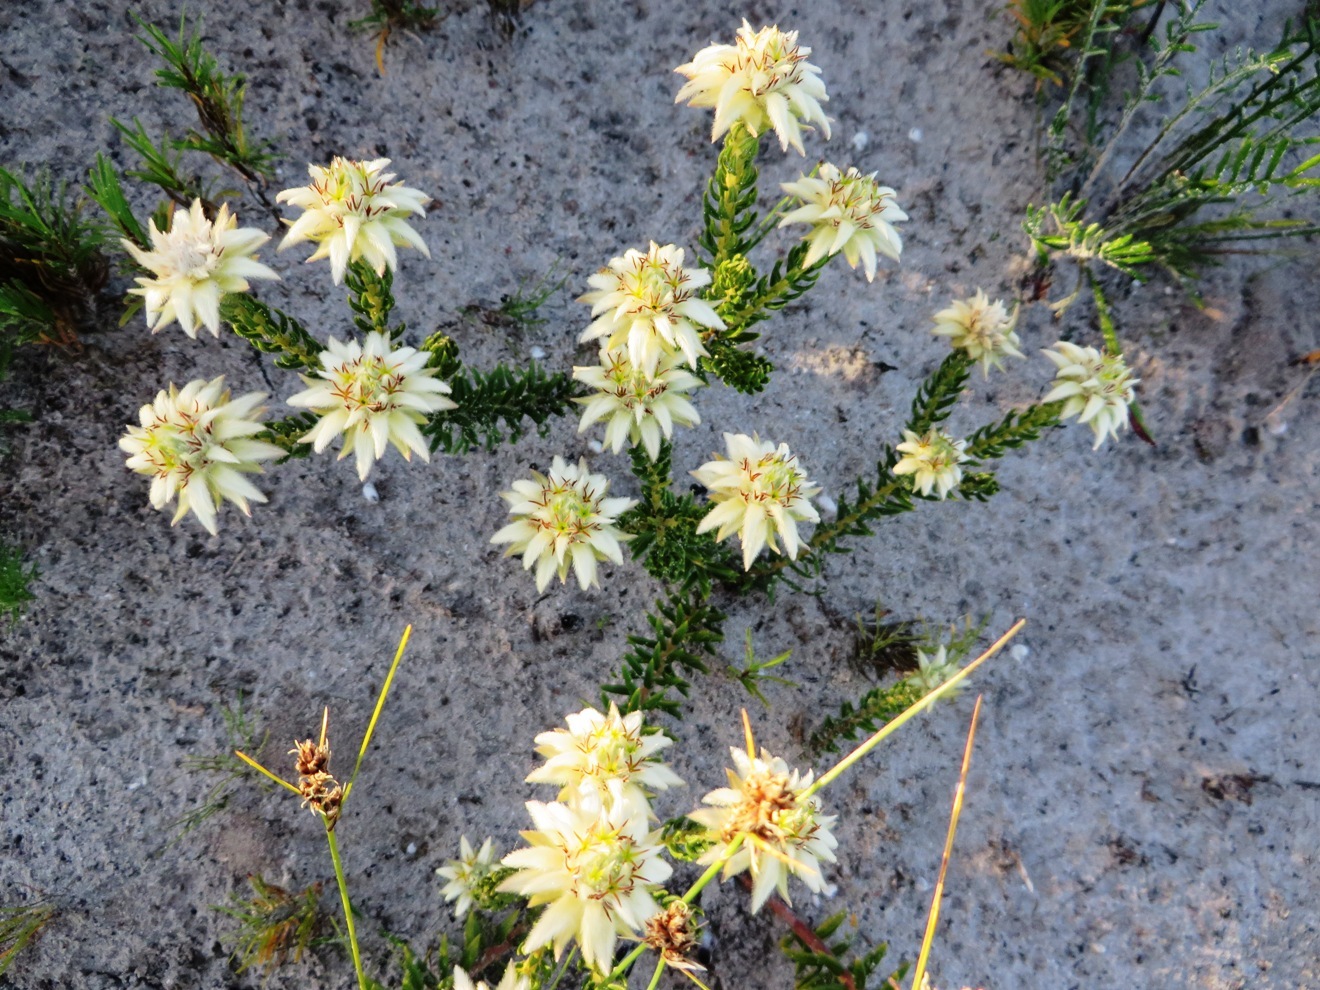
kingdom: Plantae
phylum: Tracheophyta
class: Magnoliopsida
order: Rosales
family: Rhamnaceae
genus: Phylica
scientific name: Phylica dodii
